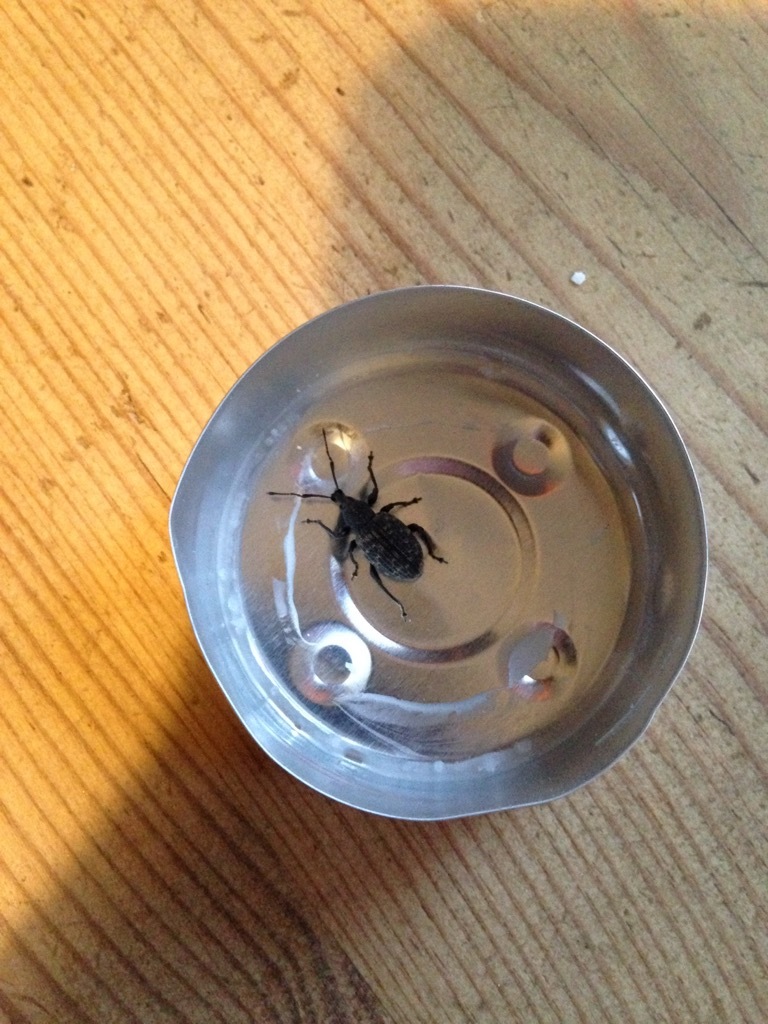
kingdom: Animalia
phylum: Arthropoda
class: Insecta
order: Coleoptera
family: Curculionidae
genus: Otiorhynchus
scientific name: Otiorhynchus sulcatus
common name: Black vine weevil
